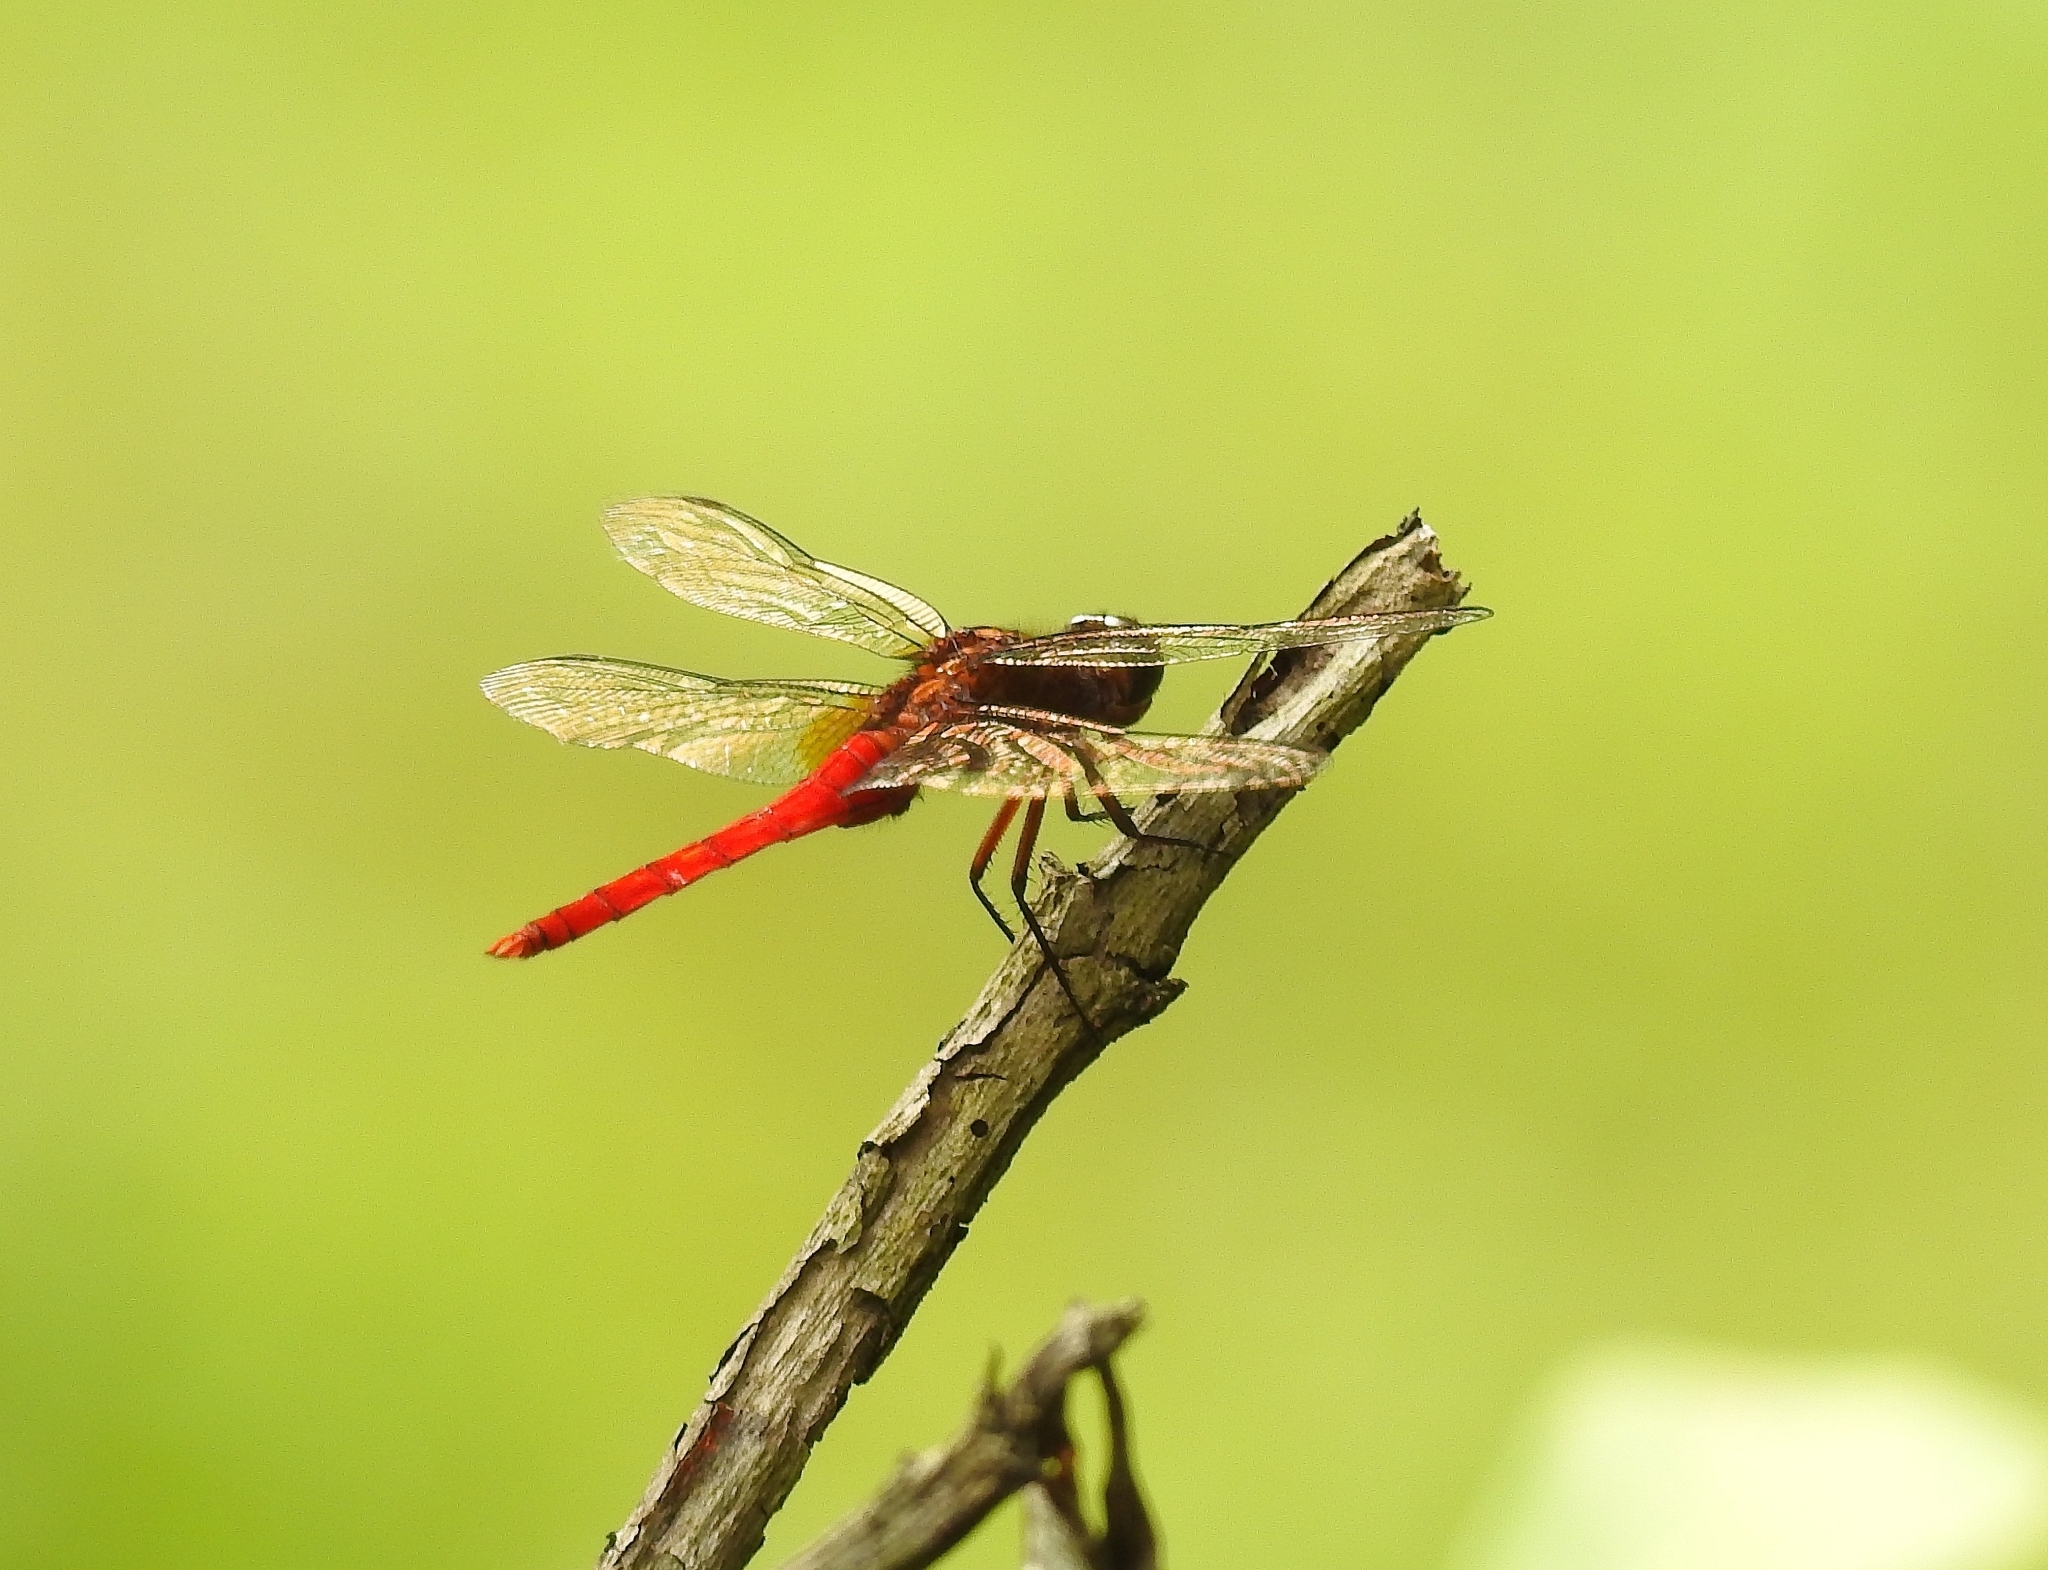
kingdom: Animalia
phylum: Arthropoda
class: Insecta
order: Odonata
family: Libellulidae
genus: Orthetrum
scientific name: Orthetrum chrysis
